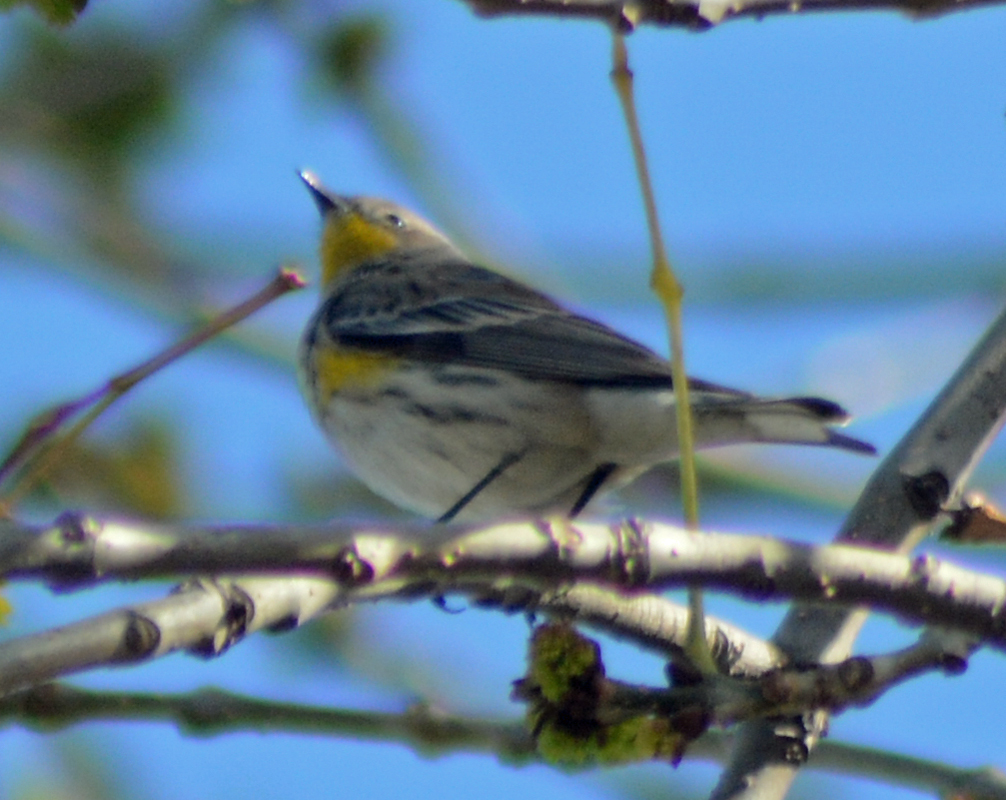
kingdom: Animalia
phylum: Chordata
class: Aves
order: Passeriformes
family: Parulidae
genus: Setophaga
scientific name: Setophaga coronata
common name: Myrtle warbler
